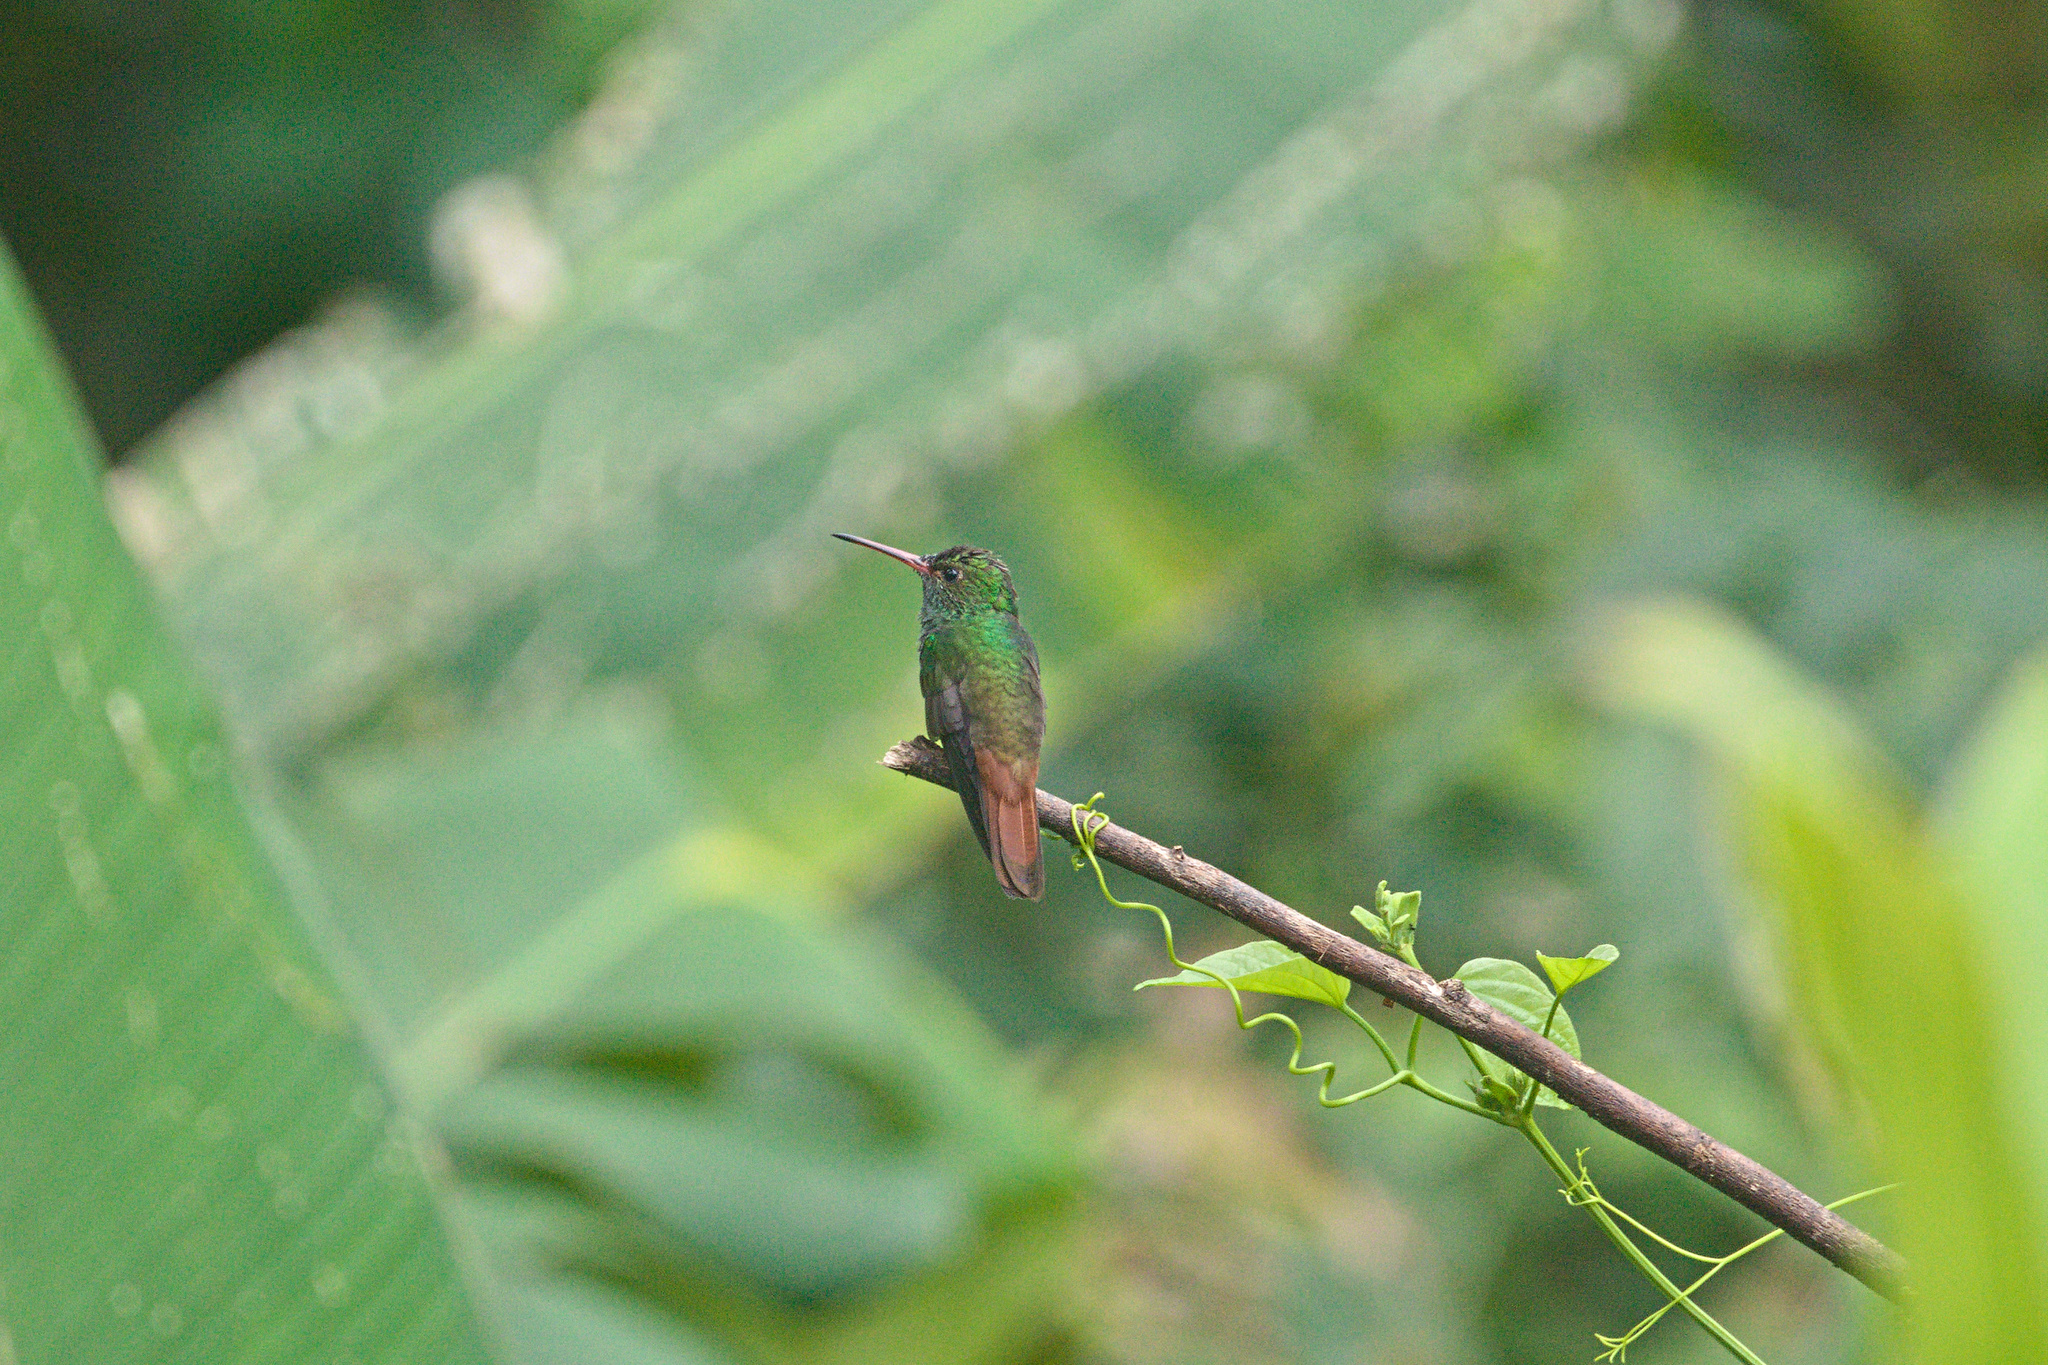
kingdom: Animalia
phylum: Chordata
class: Aves
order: Apodiformes
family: Trochilidae
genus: Amazilia
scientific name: Amazilia tzacatl
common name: Rufous-tailed hummingbird
